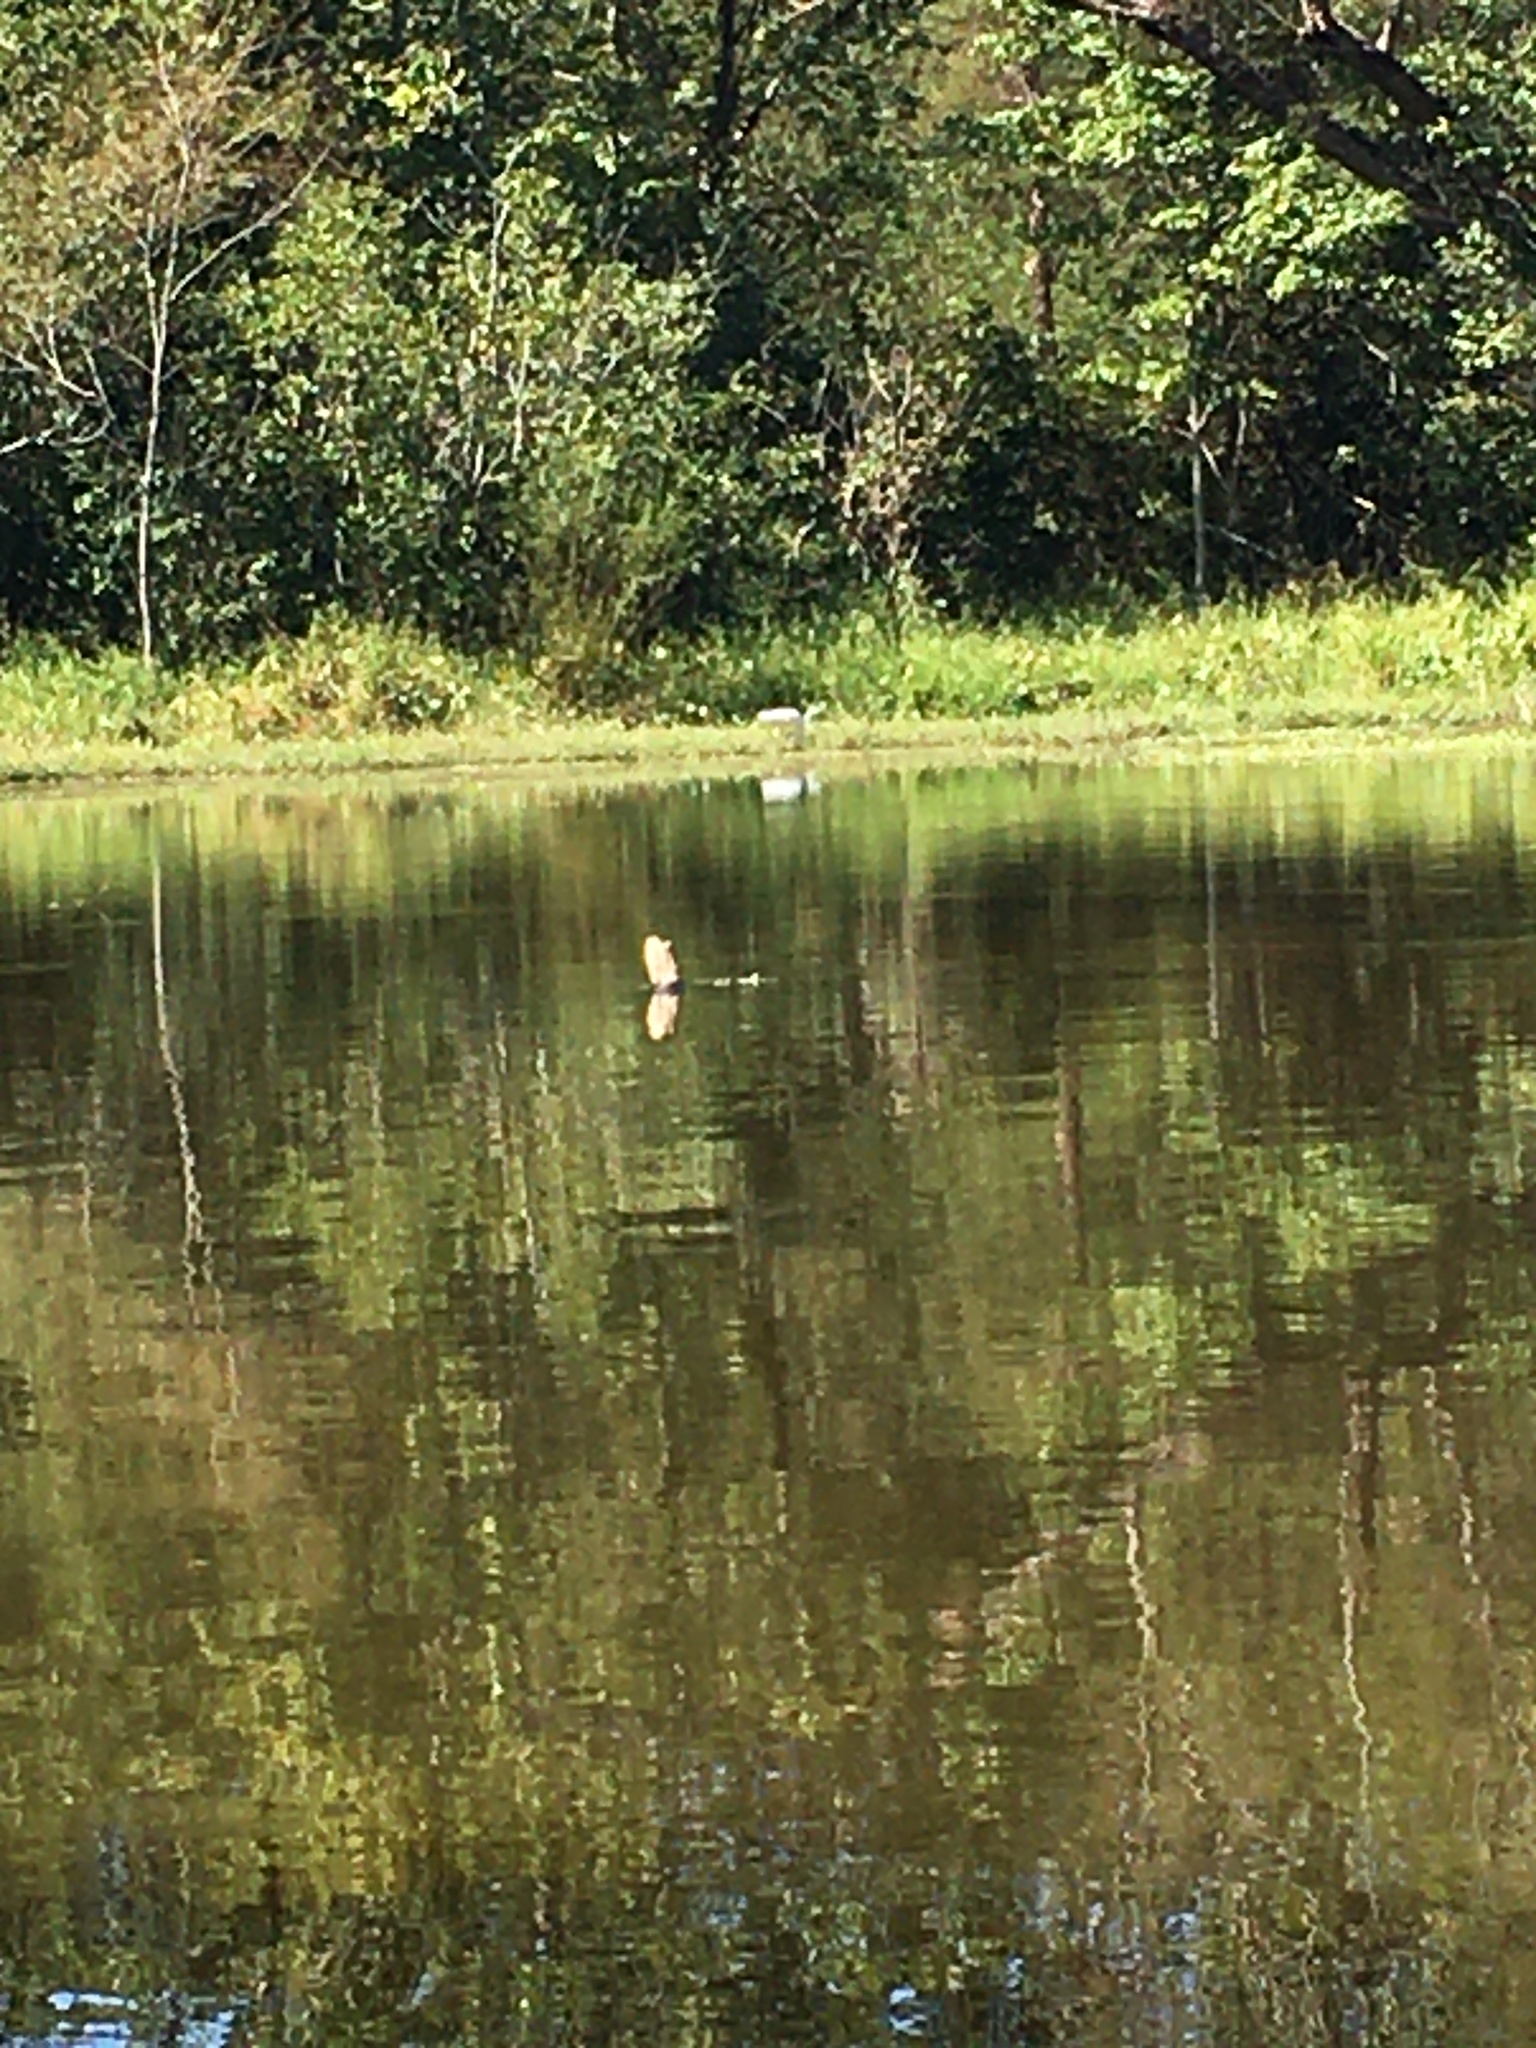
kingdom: Animalia
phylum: Chordata
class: Aves
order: Pelecaniformes
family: Ardeidae
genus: Ardea
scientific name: Ardea alba
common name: Great egret
